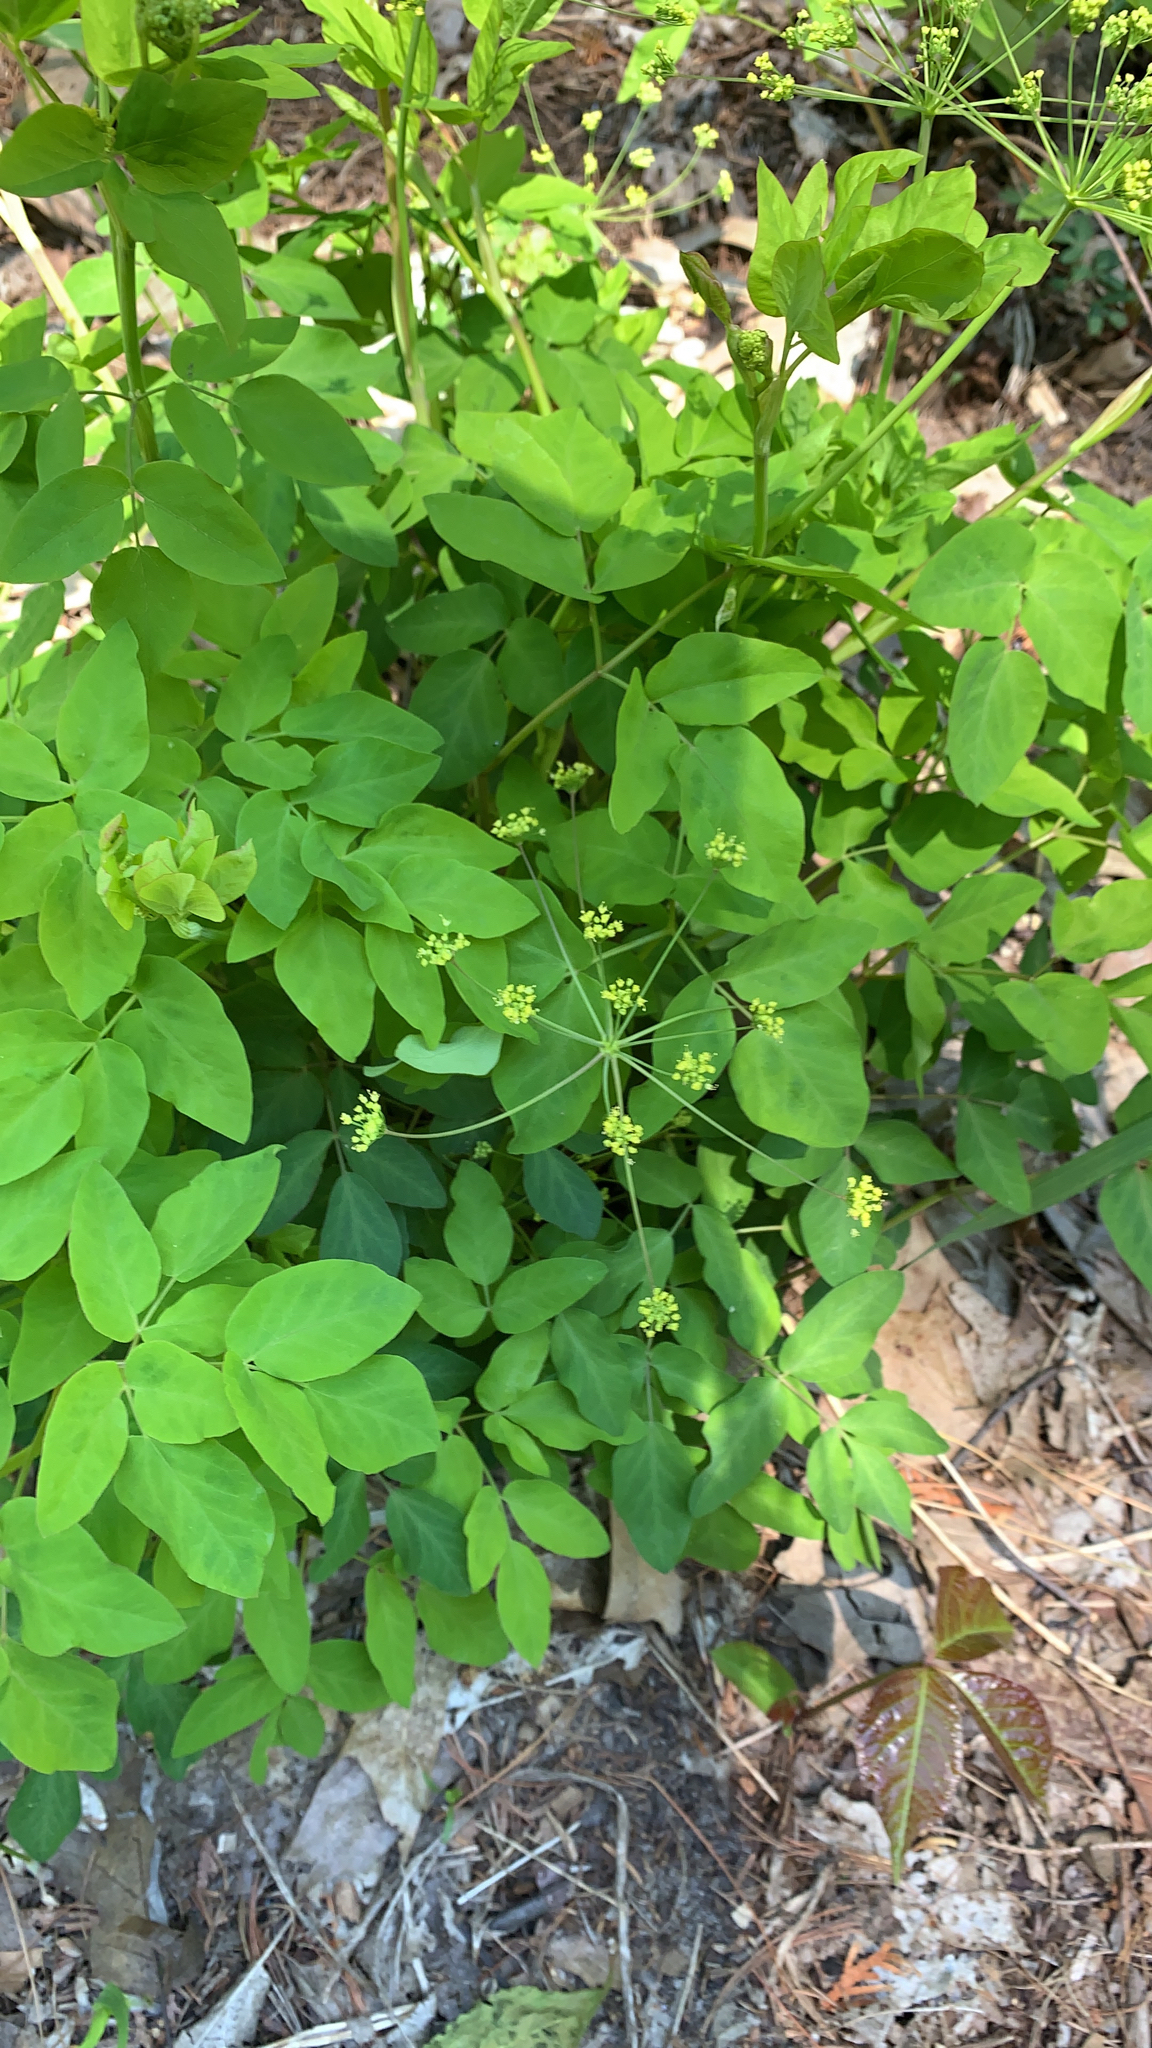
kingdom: Plantae
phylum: Tracheophyta
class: Magnoliopsida
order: Apiales
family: Apiaceae
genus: Taenidia
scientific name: Taenidia integerrima
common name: Golden alexander
